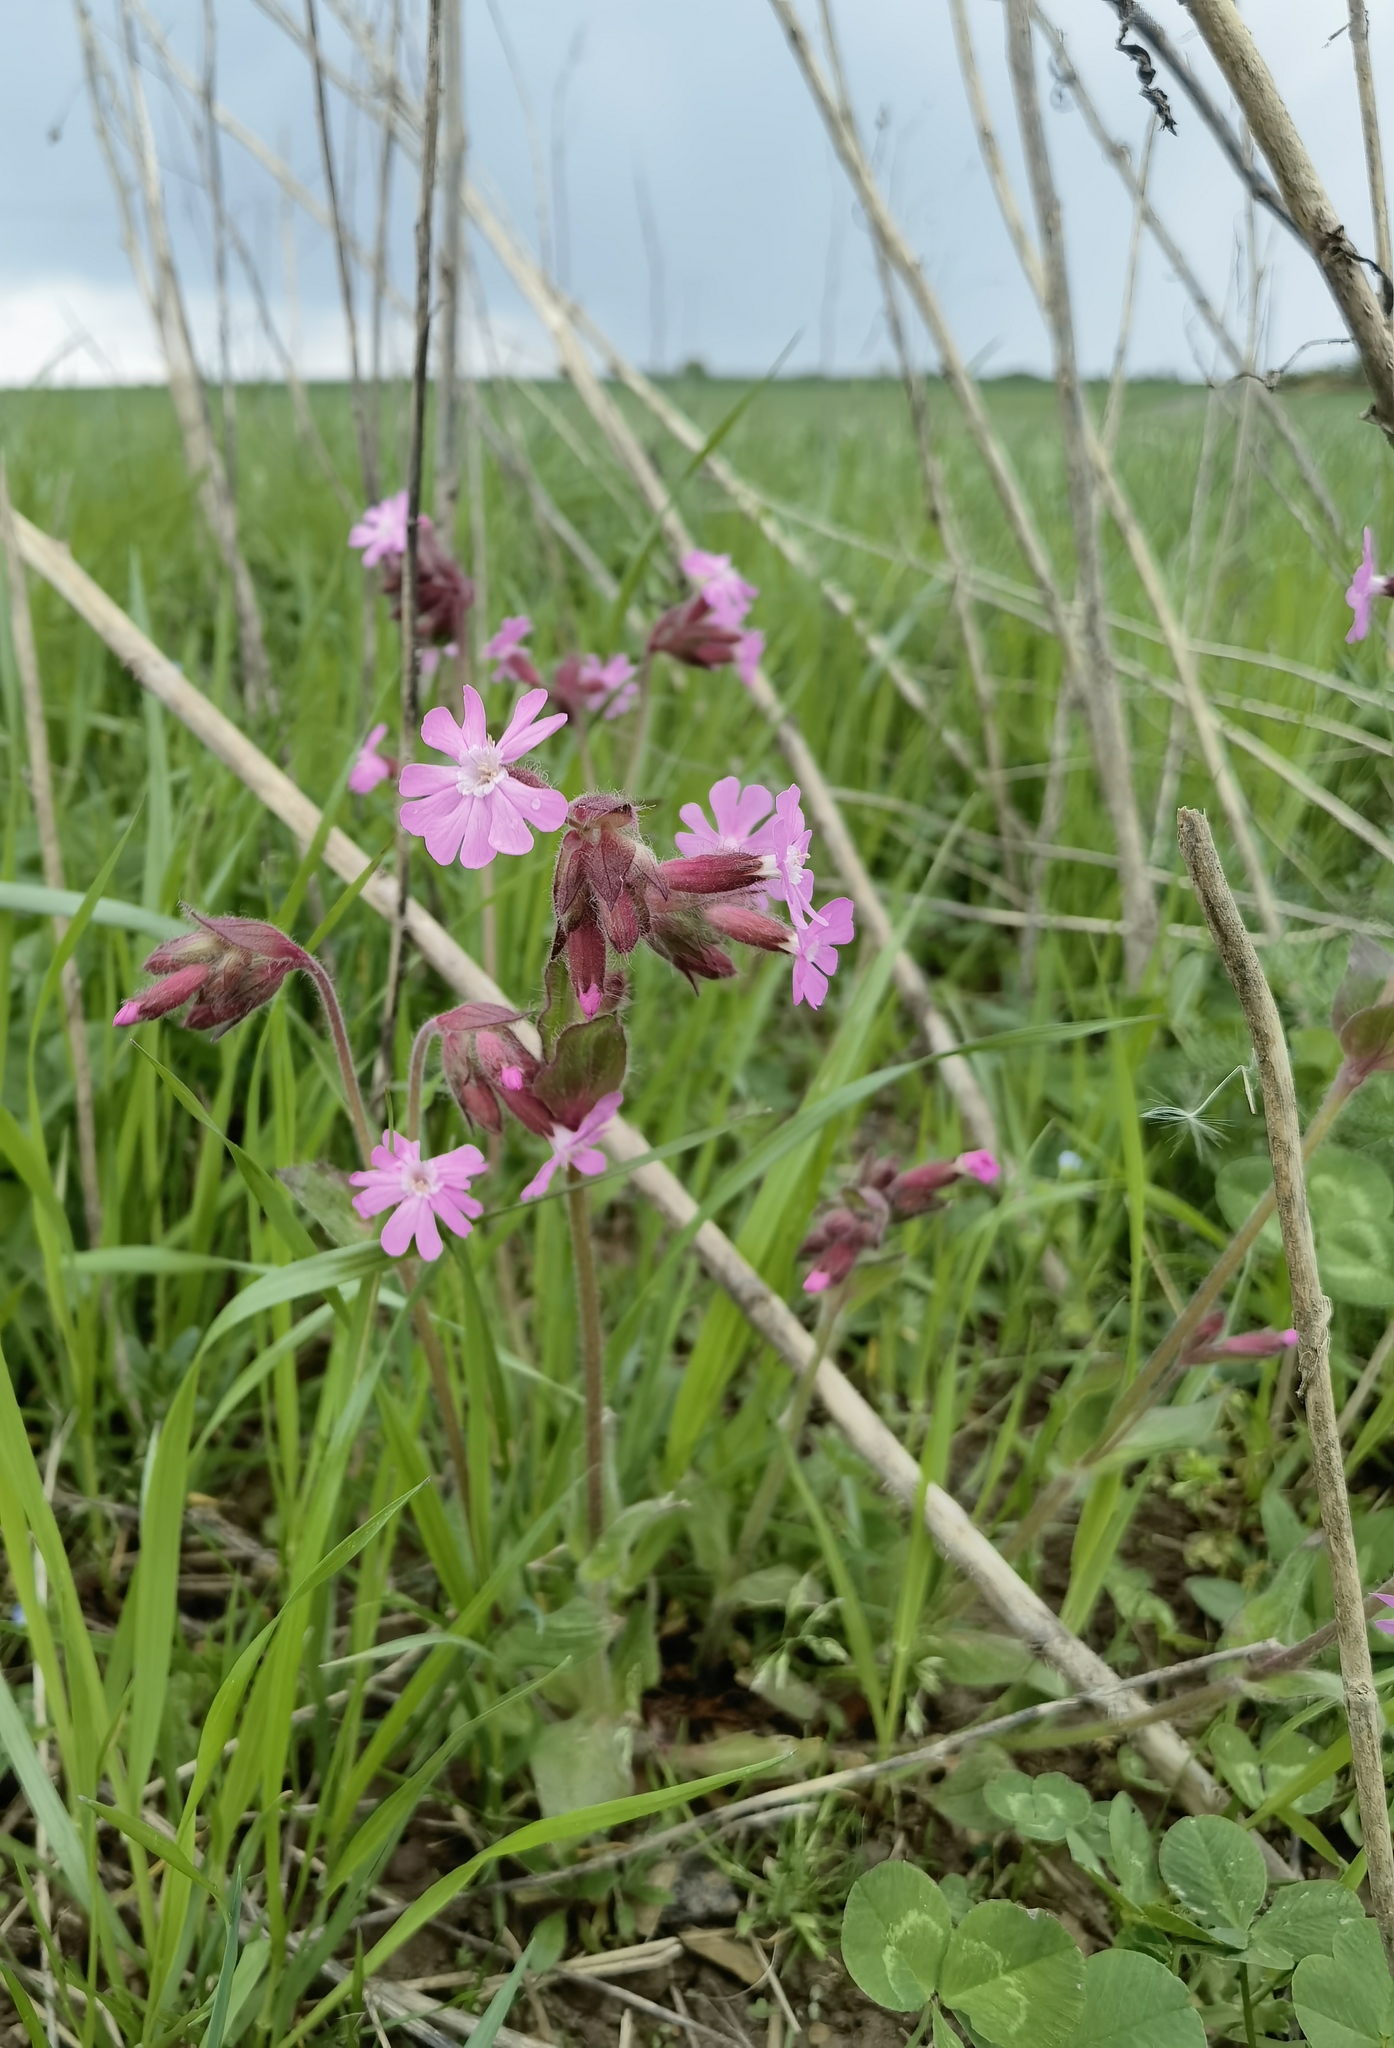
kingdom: Plantae
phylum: Tracheophyta
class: Magnoliopsida
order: Caryophyllales
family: Caryophyllaceae
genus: Silene
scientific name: Silene dioica
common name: Red campion
